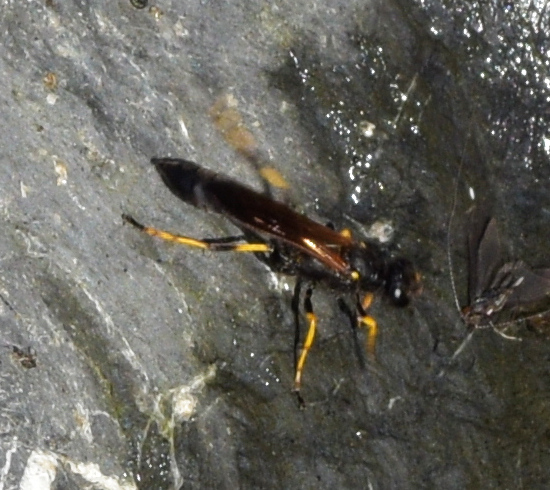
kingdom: Animalia
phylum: Arthropoda
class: Insecta
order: Hymenoptera
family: Sphecidae
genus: Sceliphron
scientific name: Sceliphron caementarium
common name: Mud dauber
